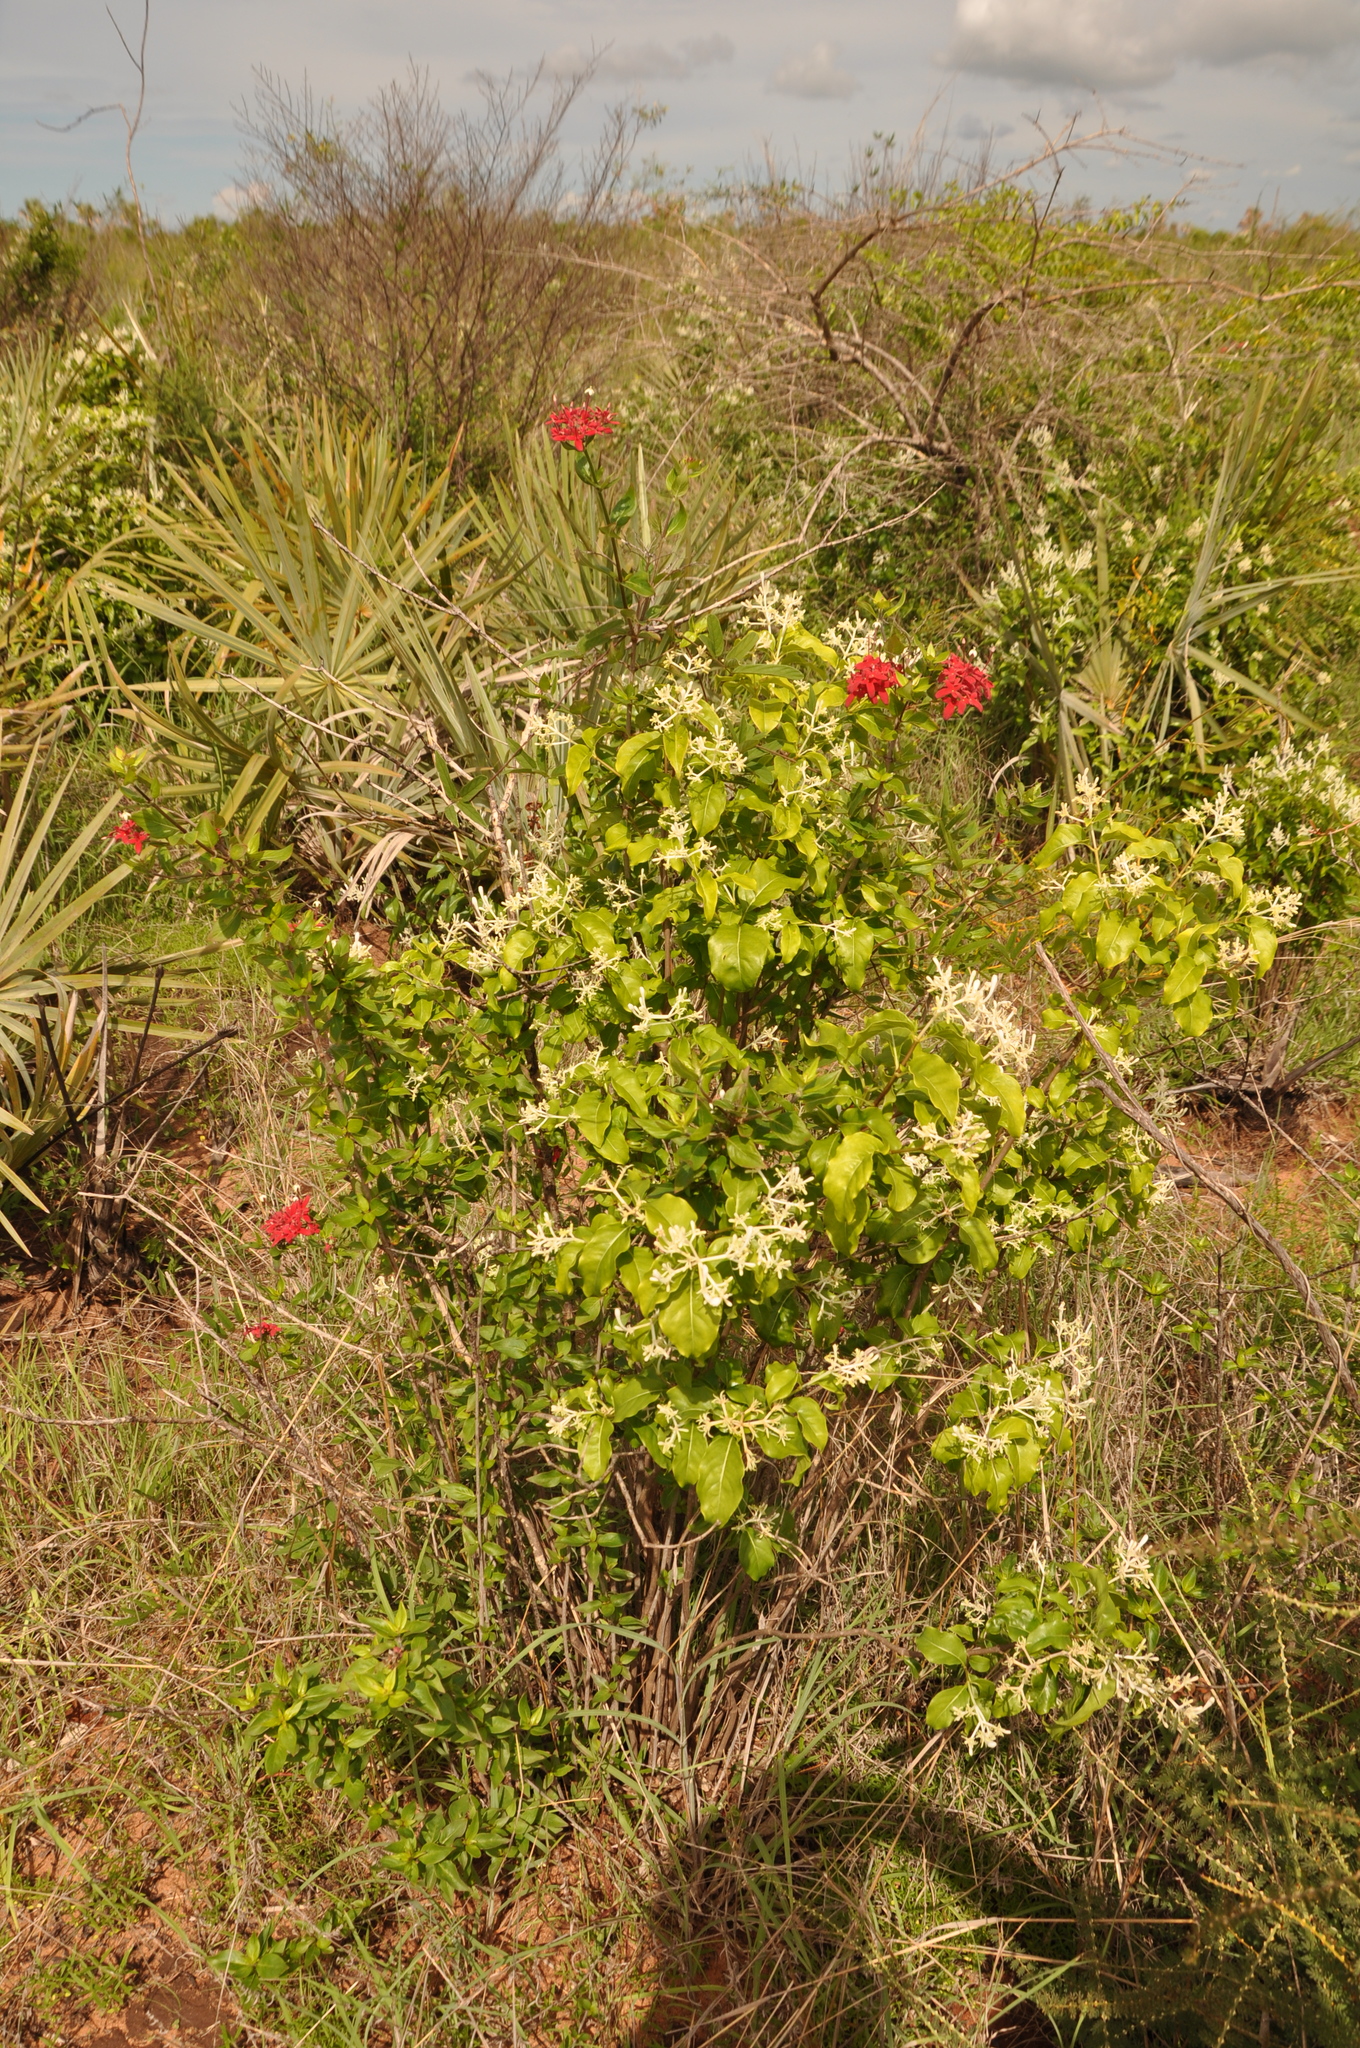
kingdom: Plantae
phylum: Tracheophyta
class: Magnoliopsida
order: Gentianales
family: Rubiaceae
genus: Paracarphalea
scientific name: Paracarphalea pervilleana
